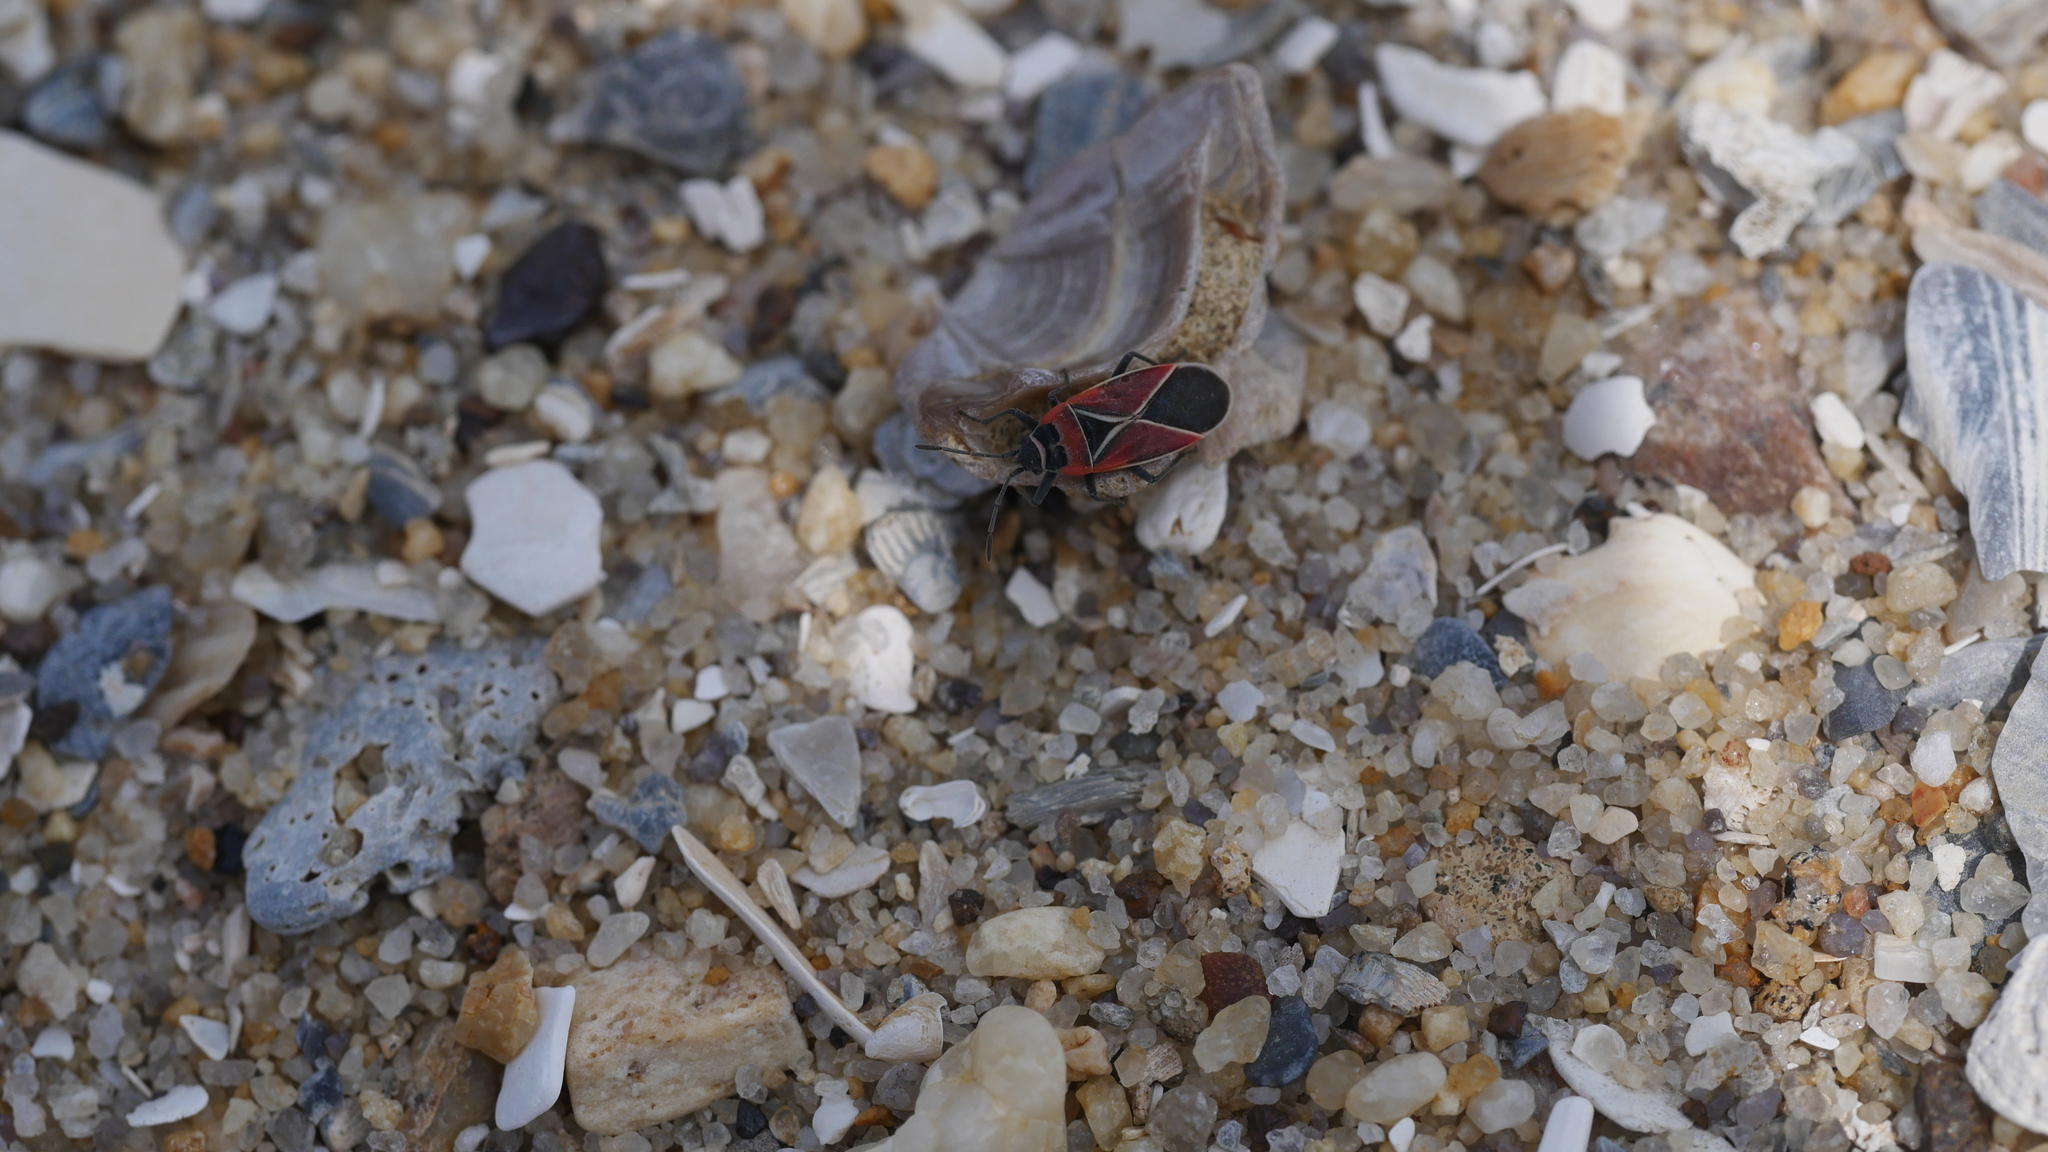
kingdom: Animalia
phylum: Arthropoda
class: Insecta
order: Hemiptera
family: Lygaeidae
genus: Neacoryphus
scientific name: Neacoryphus bicrucis
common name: Lygaeid bug
